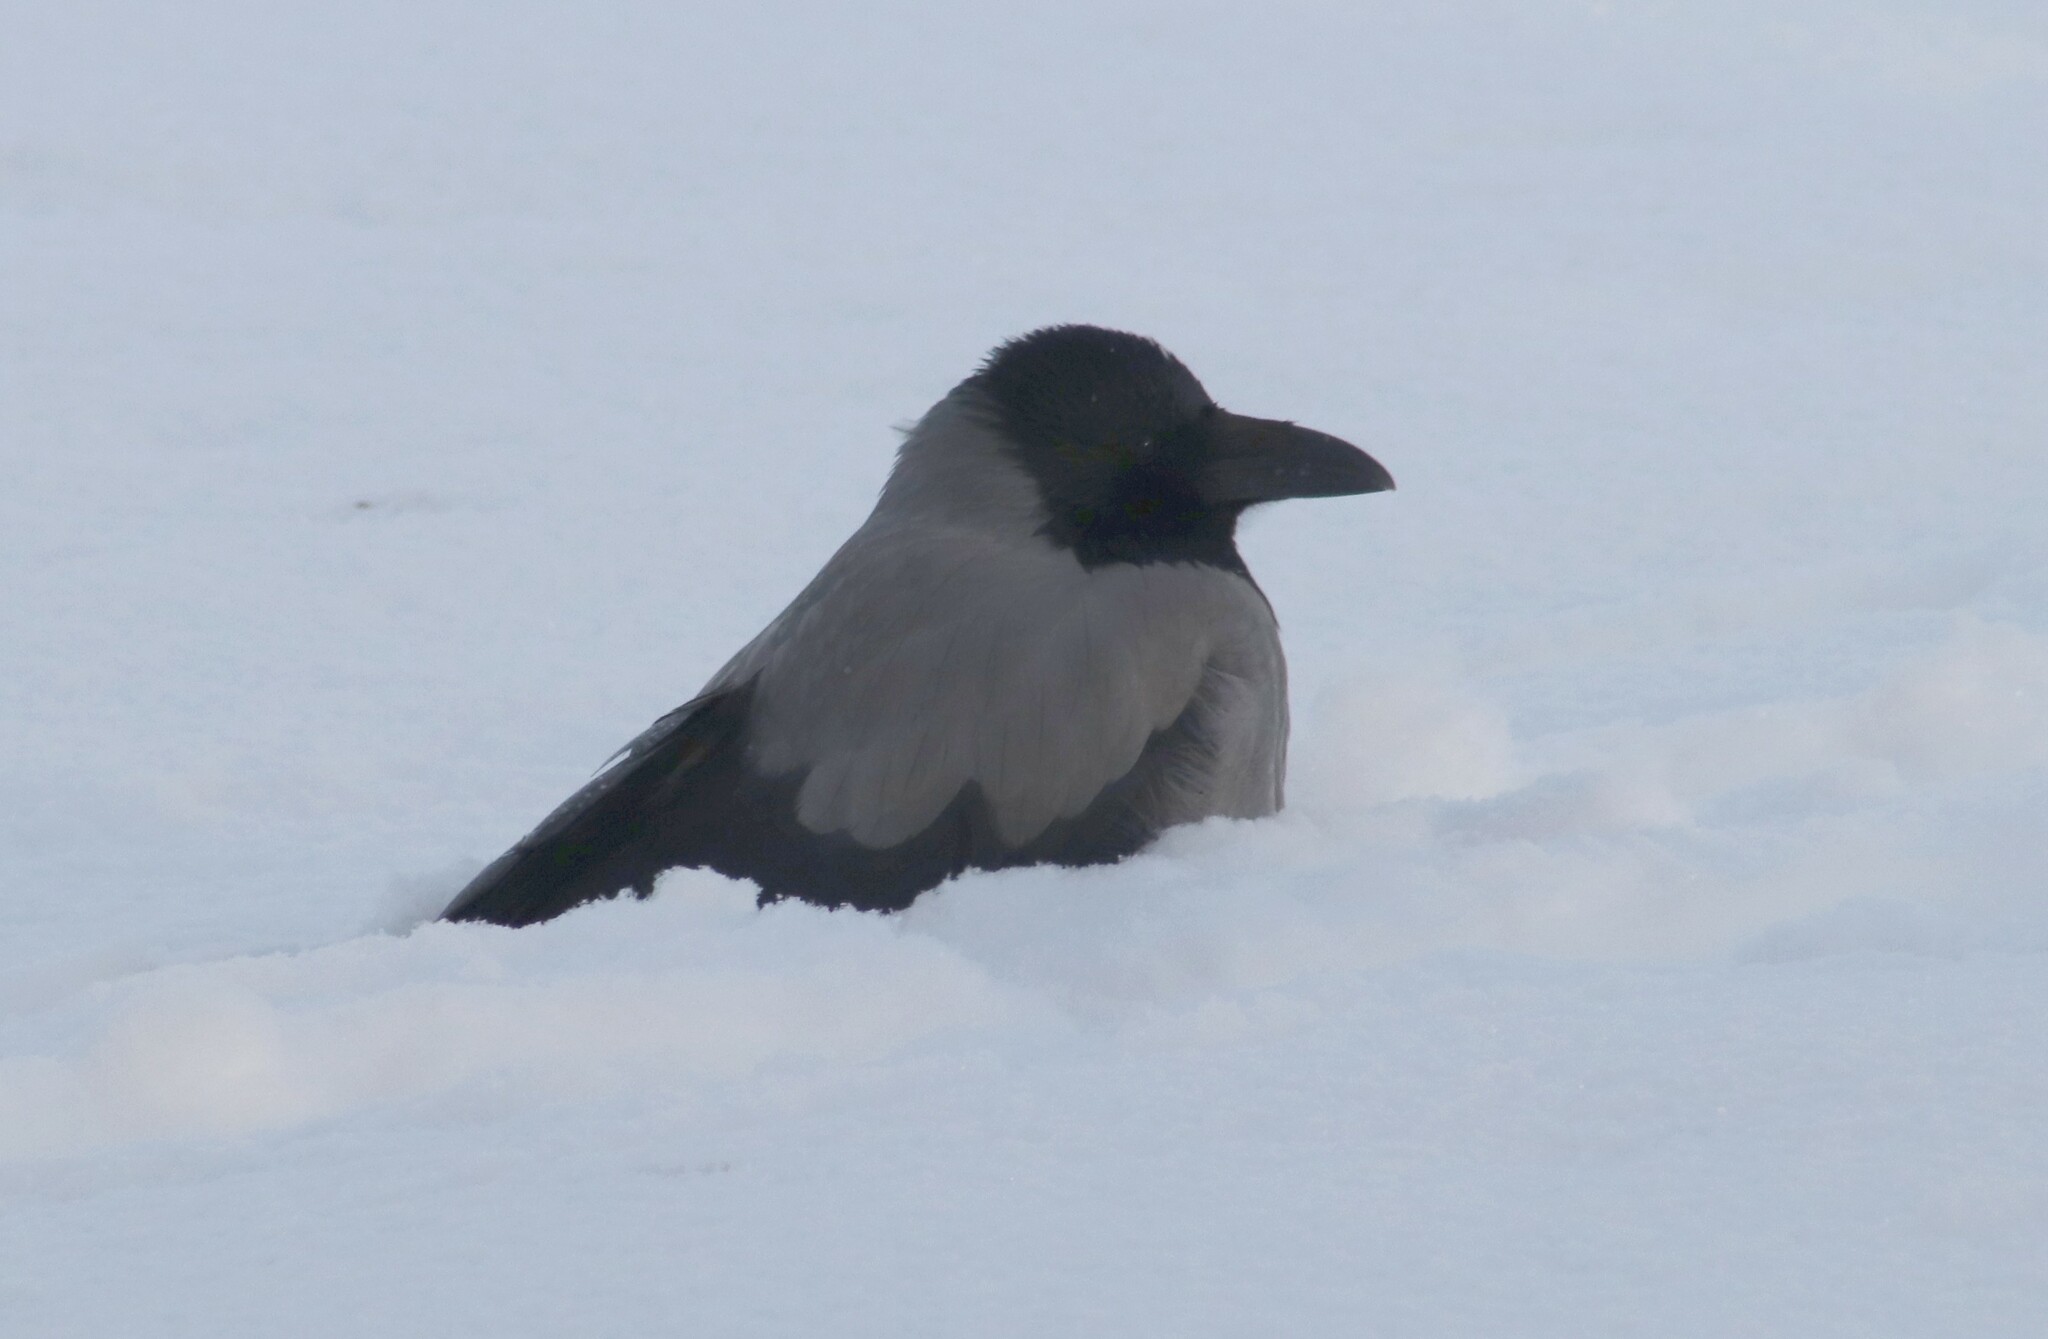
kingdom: Animalia
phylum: Chordata
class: Aves
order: Passeriformes
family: Corvidae
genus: Corvus
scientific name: Corvus cornix
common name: Hooded crow
